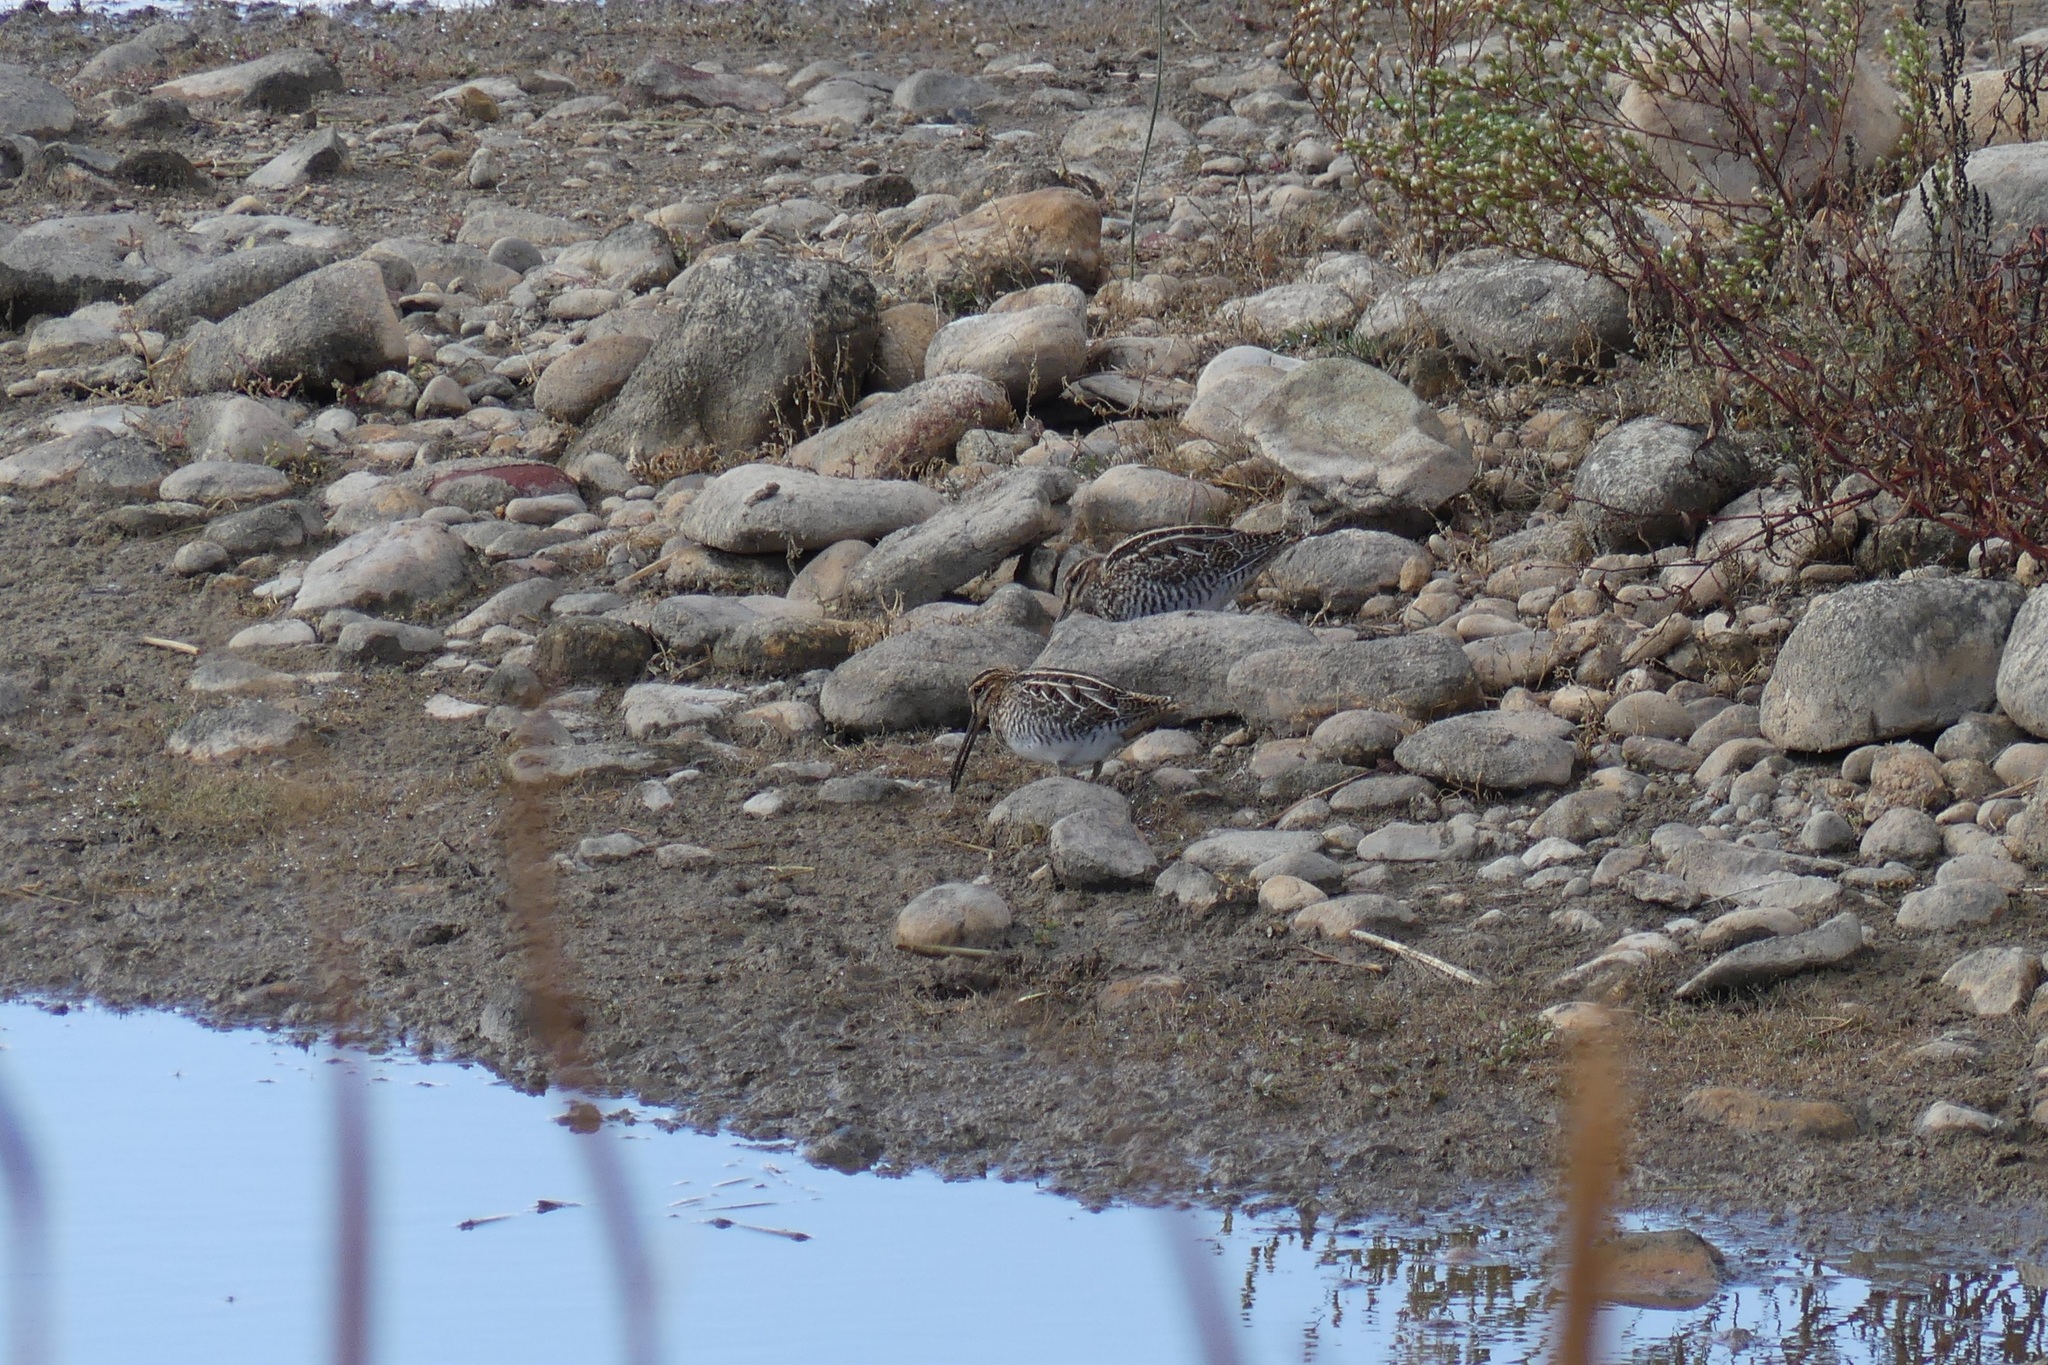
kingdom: Animalia
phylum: Chordata
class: Aves
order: Charadriiformes
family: Scolopacidae
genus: Gallinago
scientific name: Gallinago delicata
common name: Wilson's snipe
